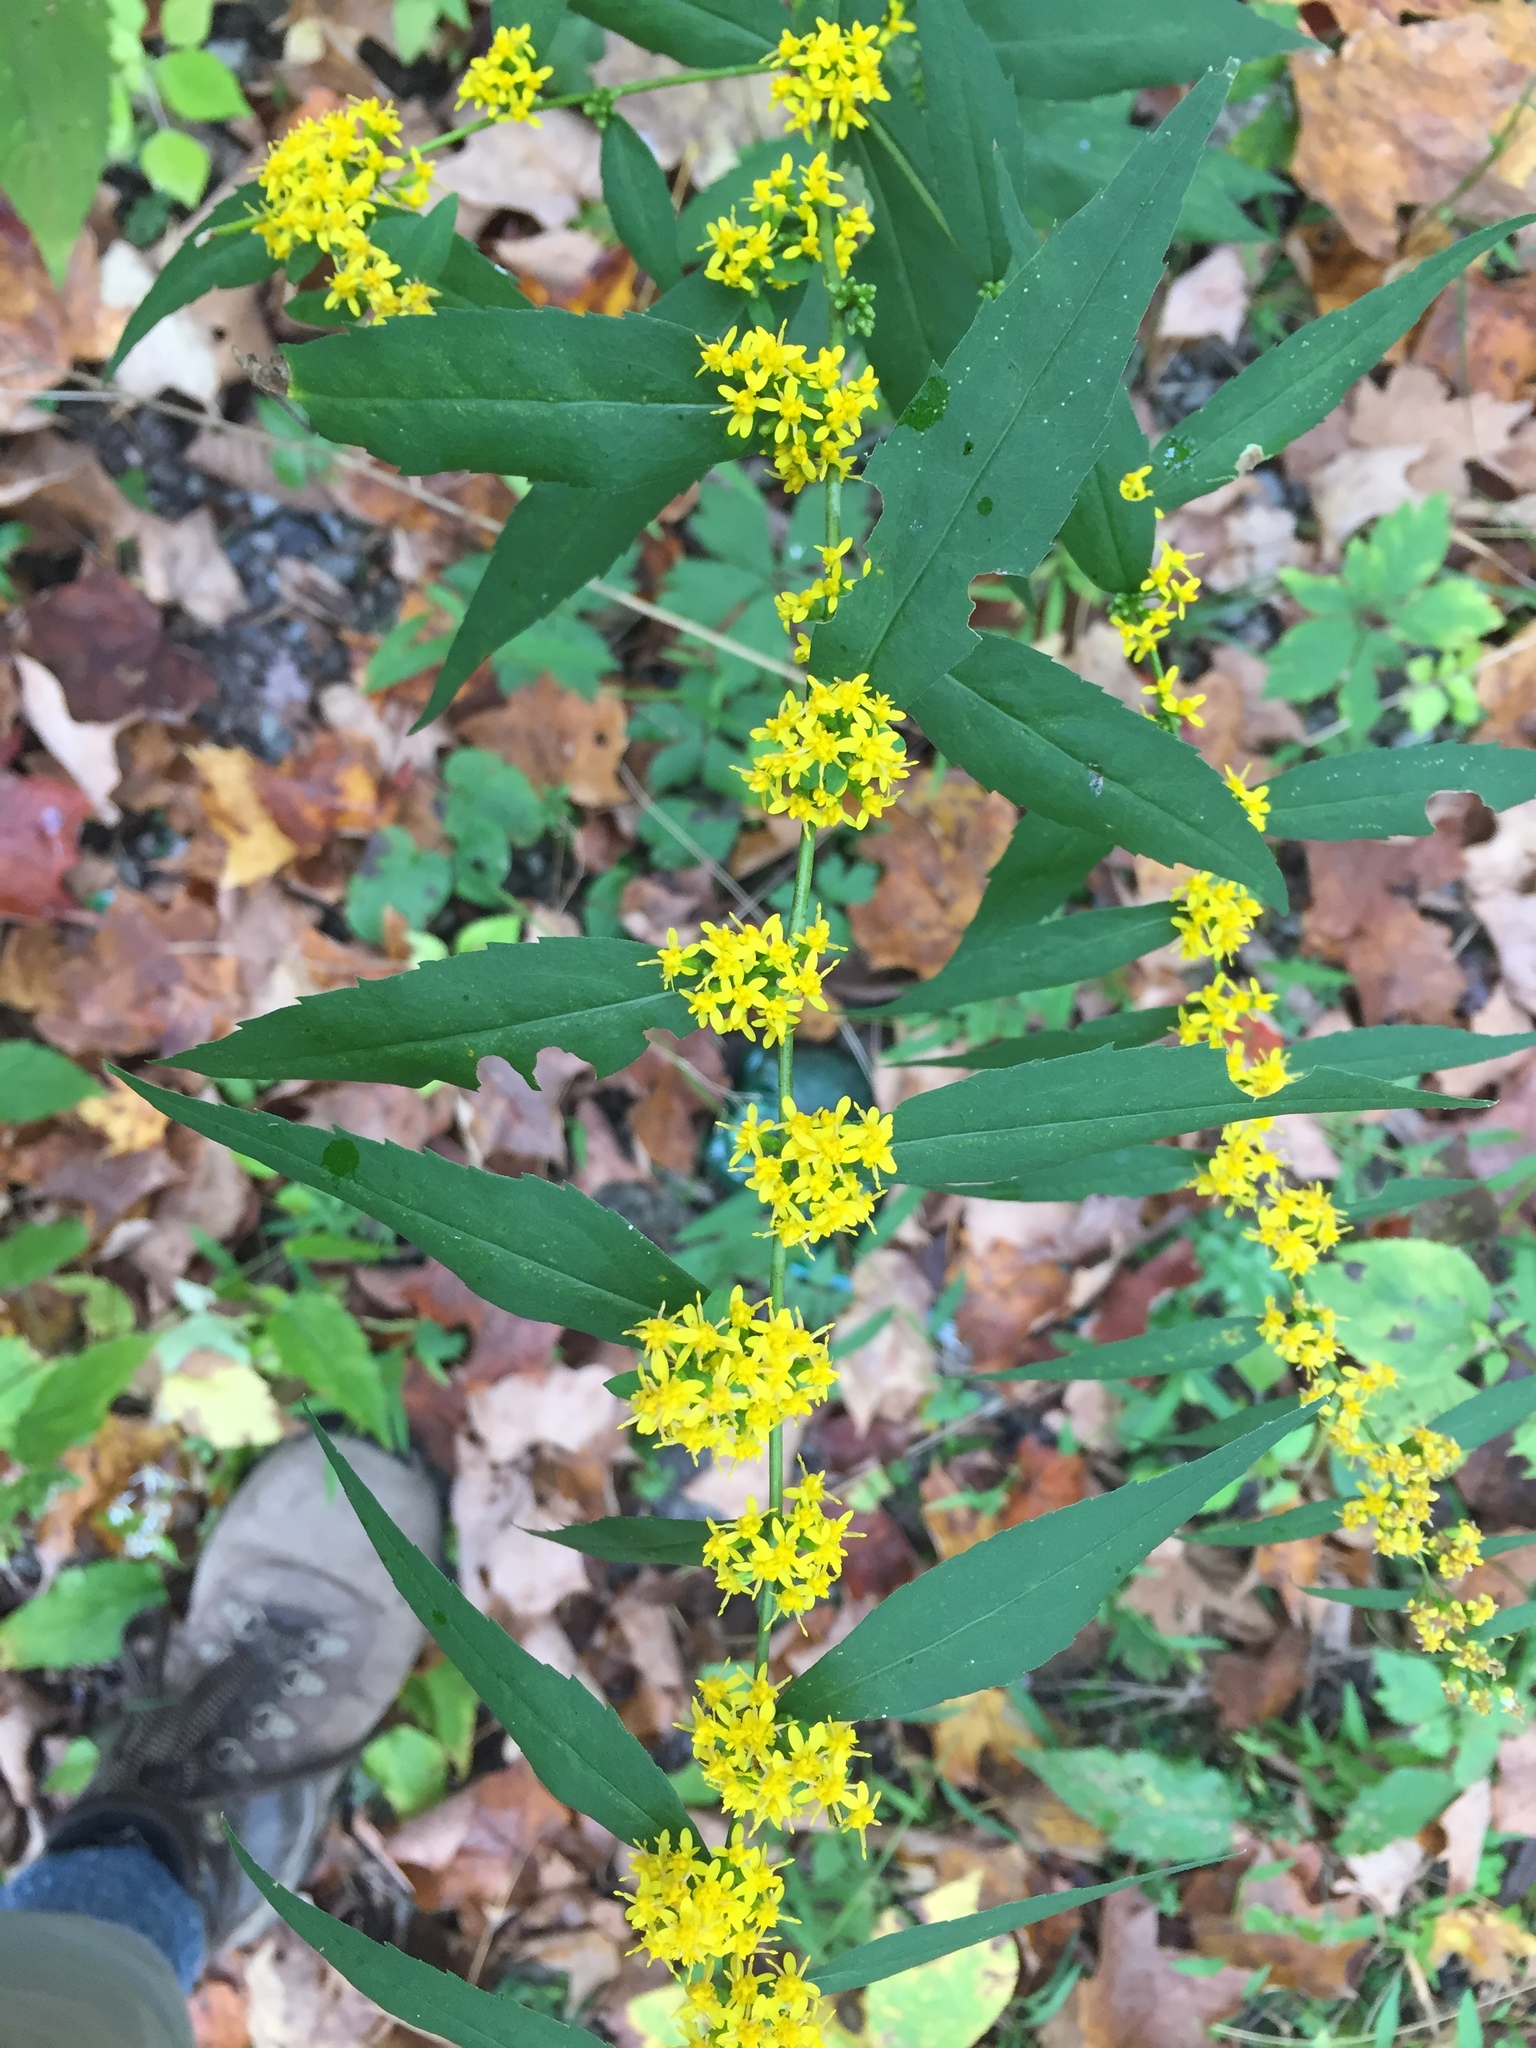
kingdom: Plantae
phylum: Tracheophyta
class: Magnoliopsida
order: Asterales
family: Asteraceae
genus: Solidago
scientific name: Solidago caesia
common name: Woodland goldenrod
